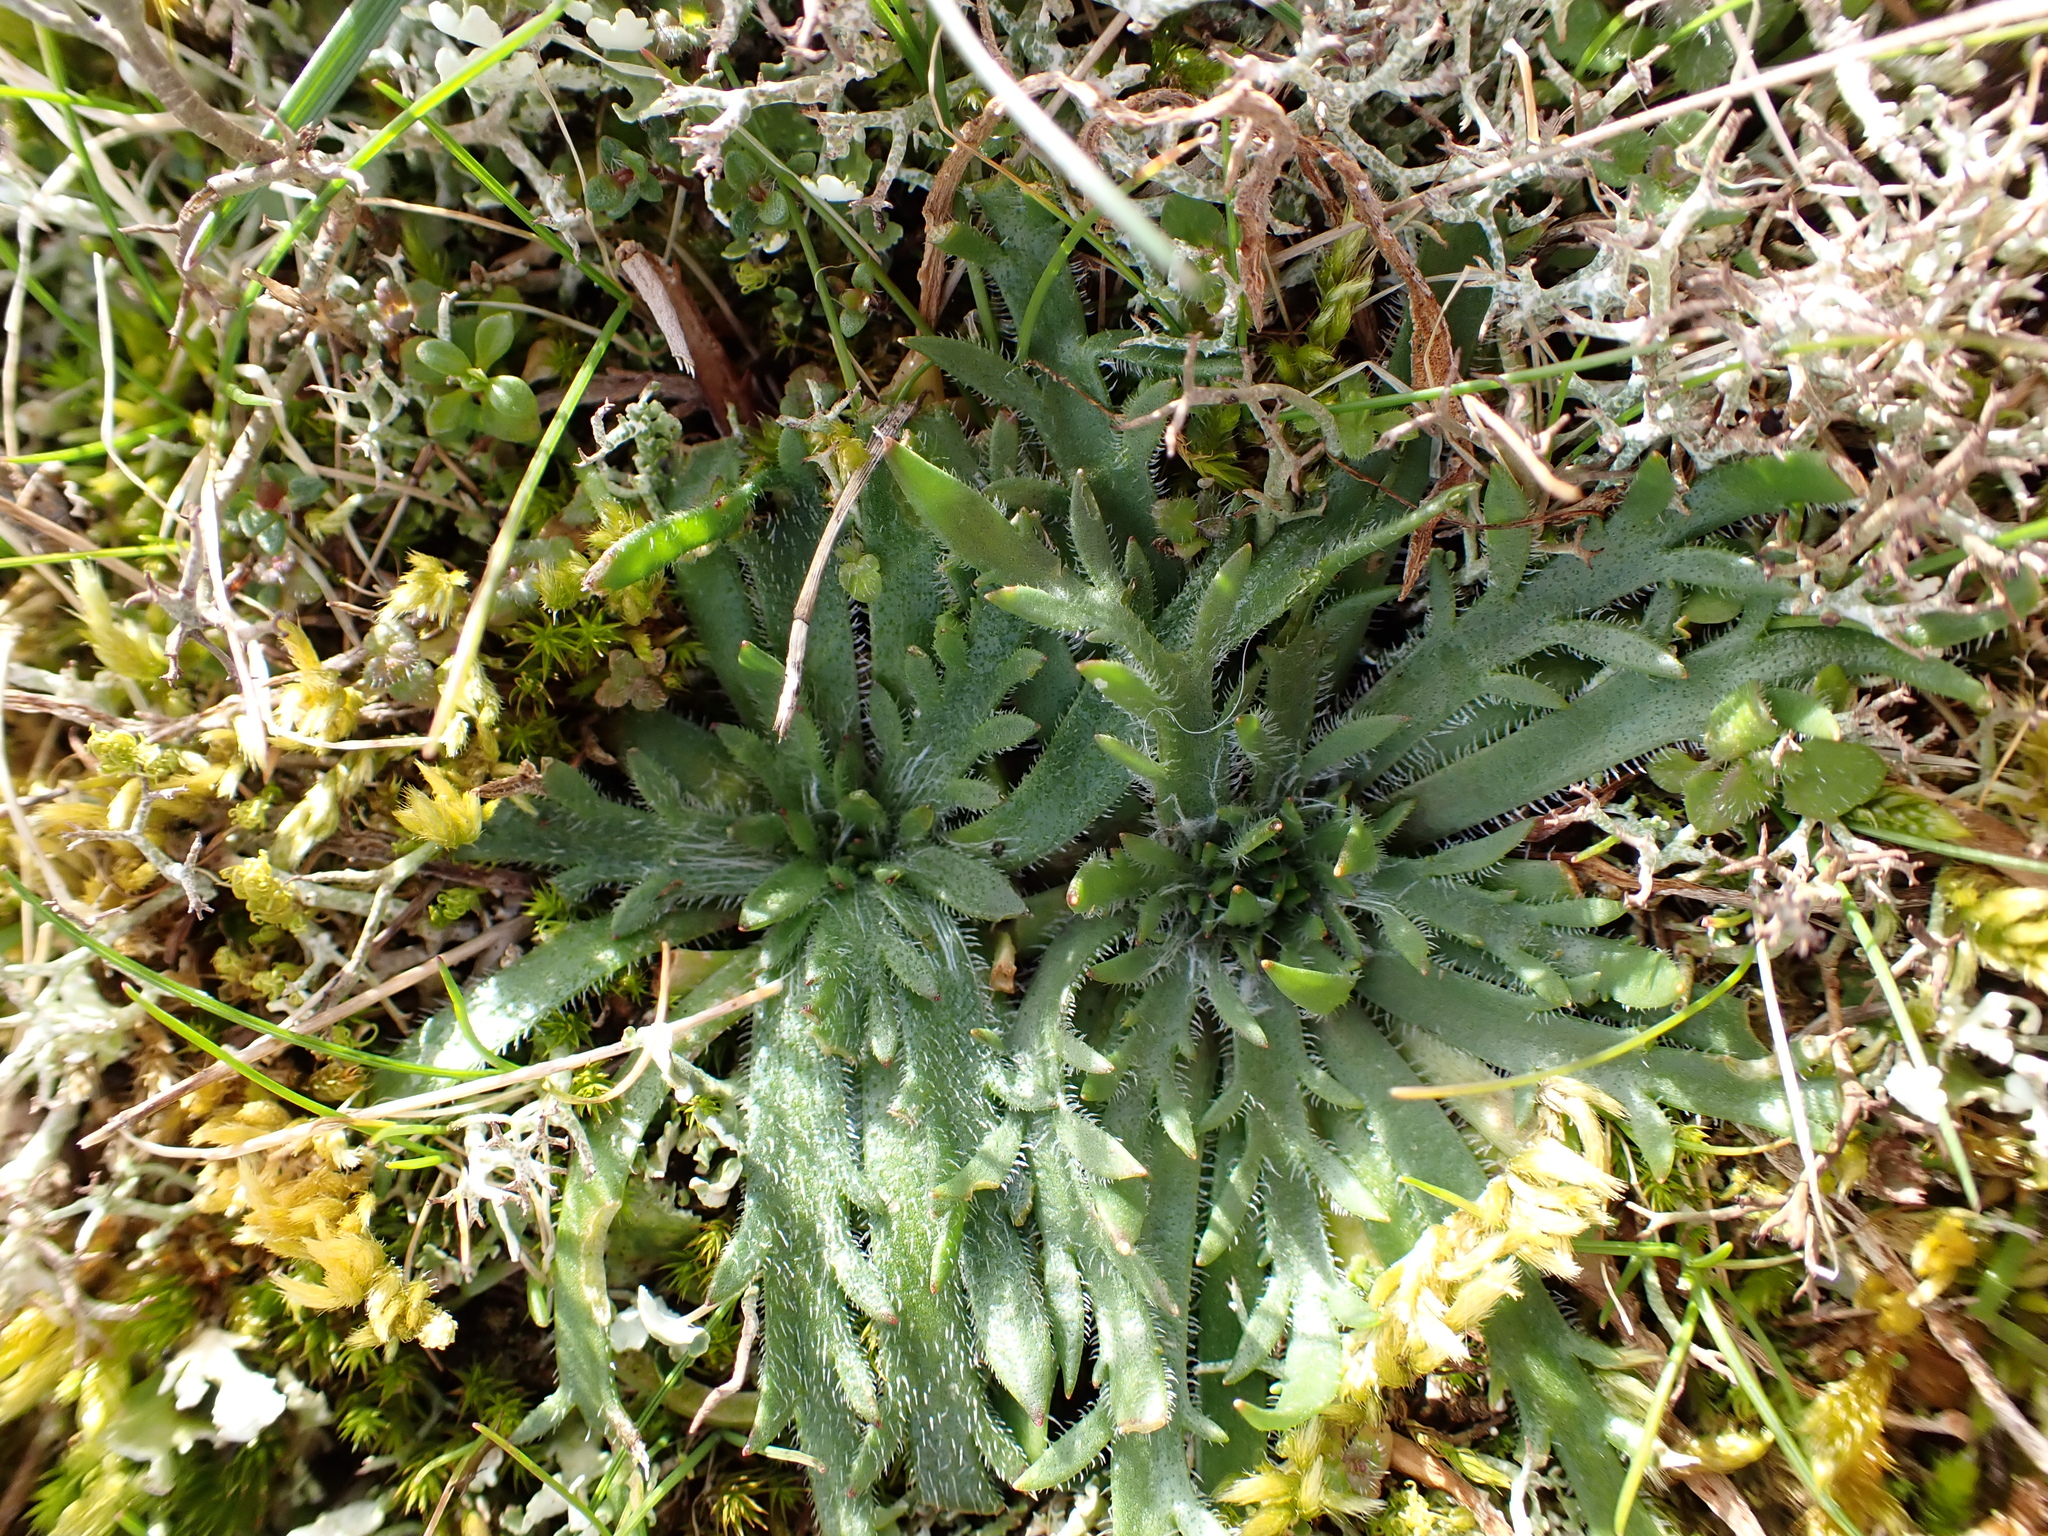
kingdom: Plantae
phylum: Tracheophyta
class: Magnoliopsida
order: Lamiales
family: Plantaginaceae
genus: Plantago
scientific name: Plantago coronopus
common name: Buck's-horn plantain
